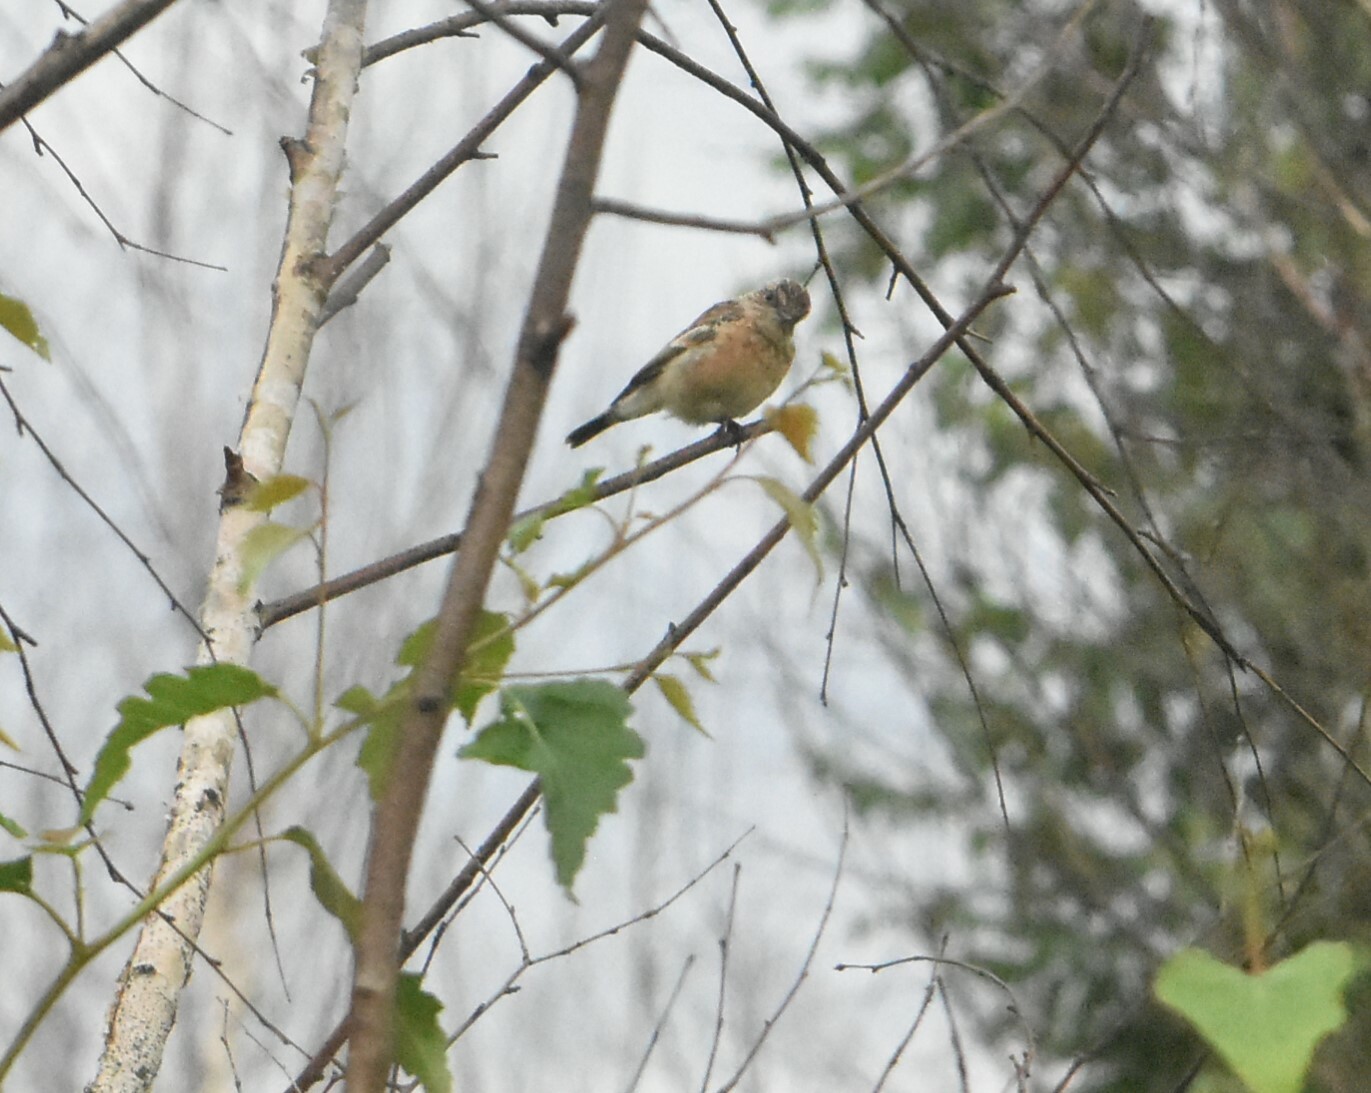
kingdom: Animalia
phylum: Chordata
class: Aves
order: Passeriformes
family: Muscicapidae
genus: Saxicola
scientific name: Saxicola maurus
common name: Siberian stonechat
